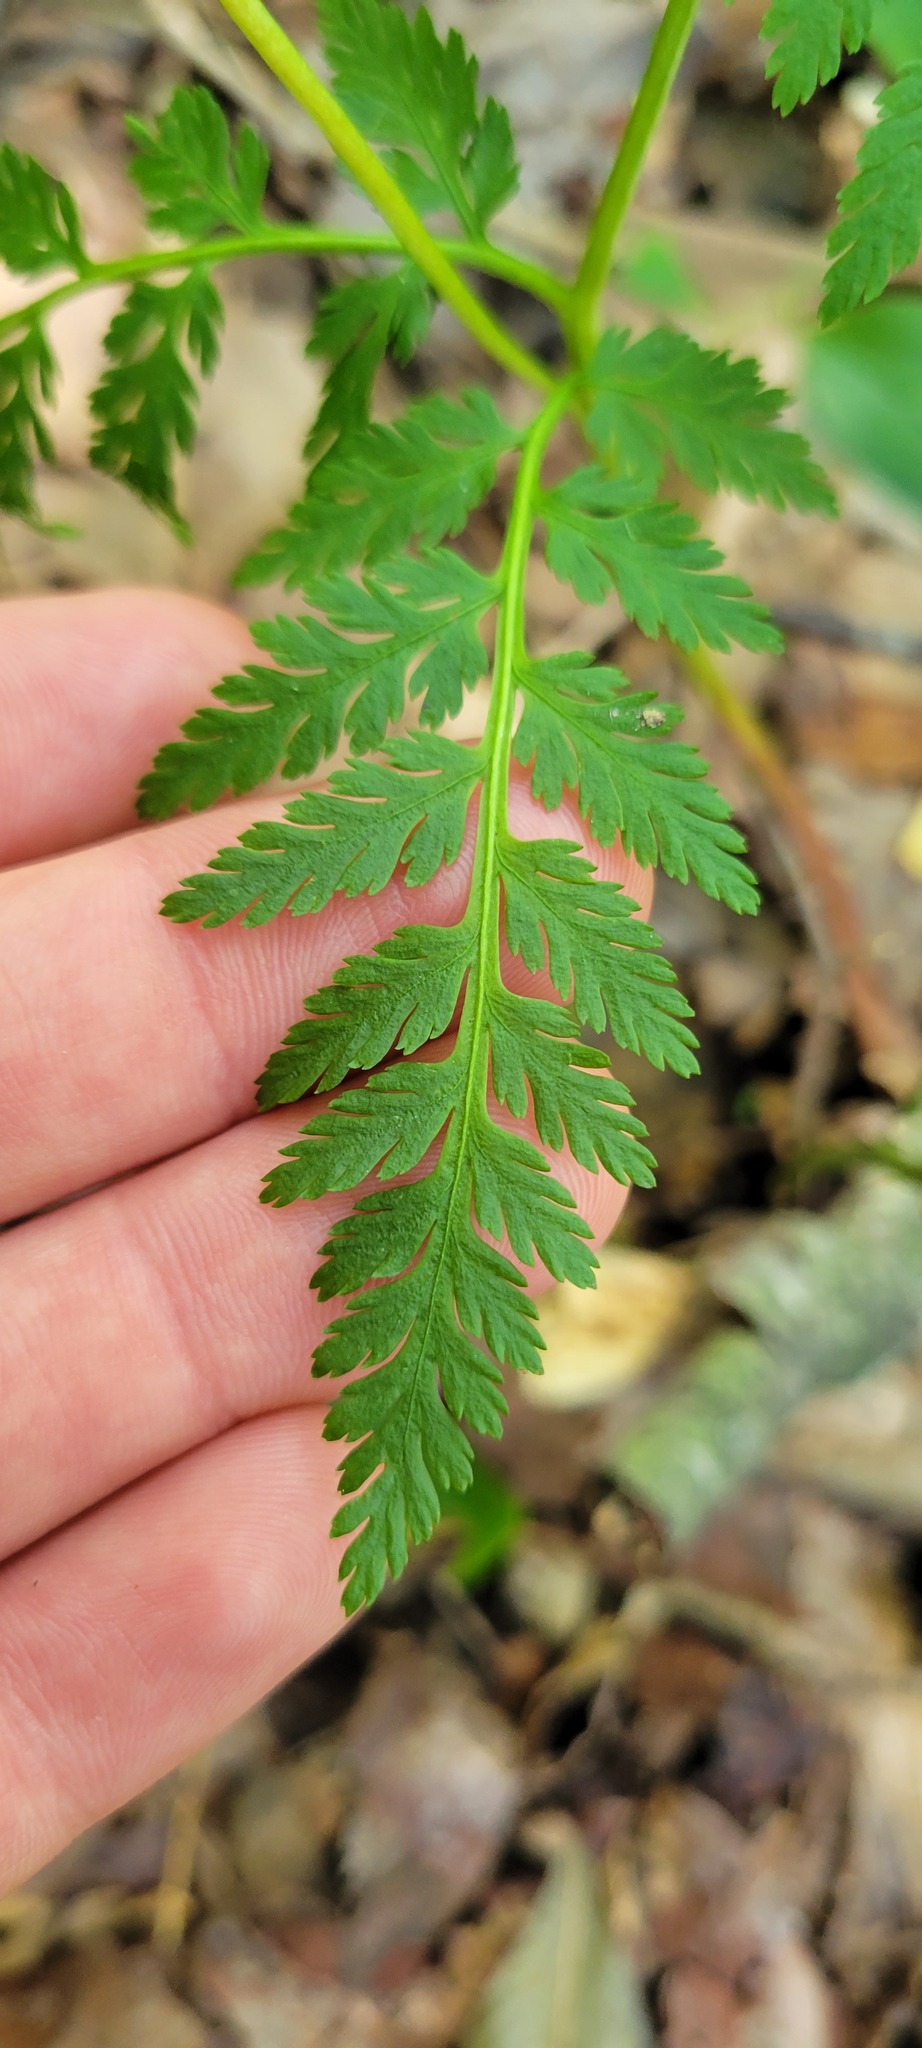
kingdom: Plantae
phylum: Tracheophyta
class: Polypodiopsida
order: Ophioglossales
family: Ophioglossaceae
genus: Botrypus
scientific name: Botrypus virginianus
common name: Common grapefern
